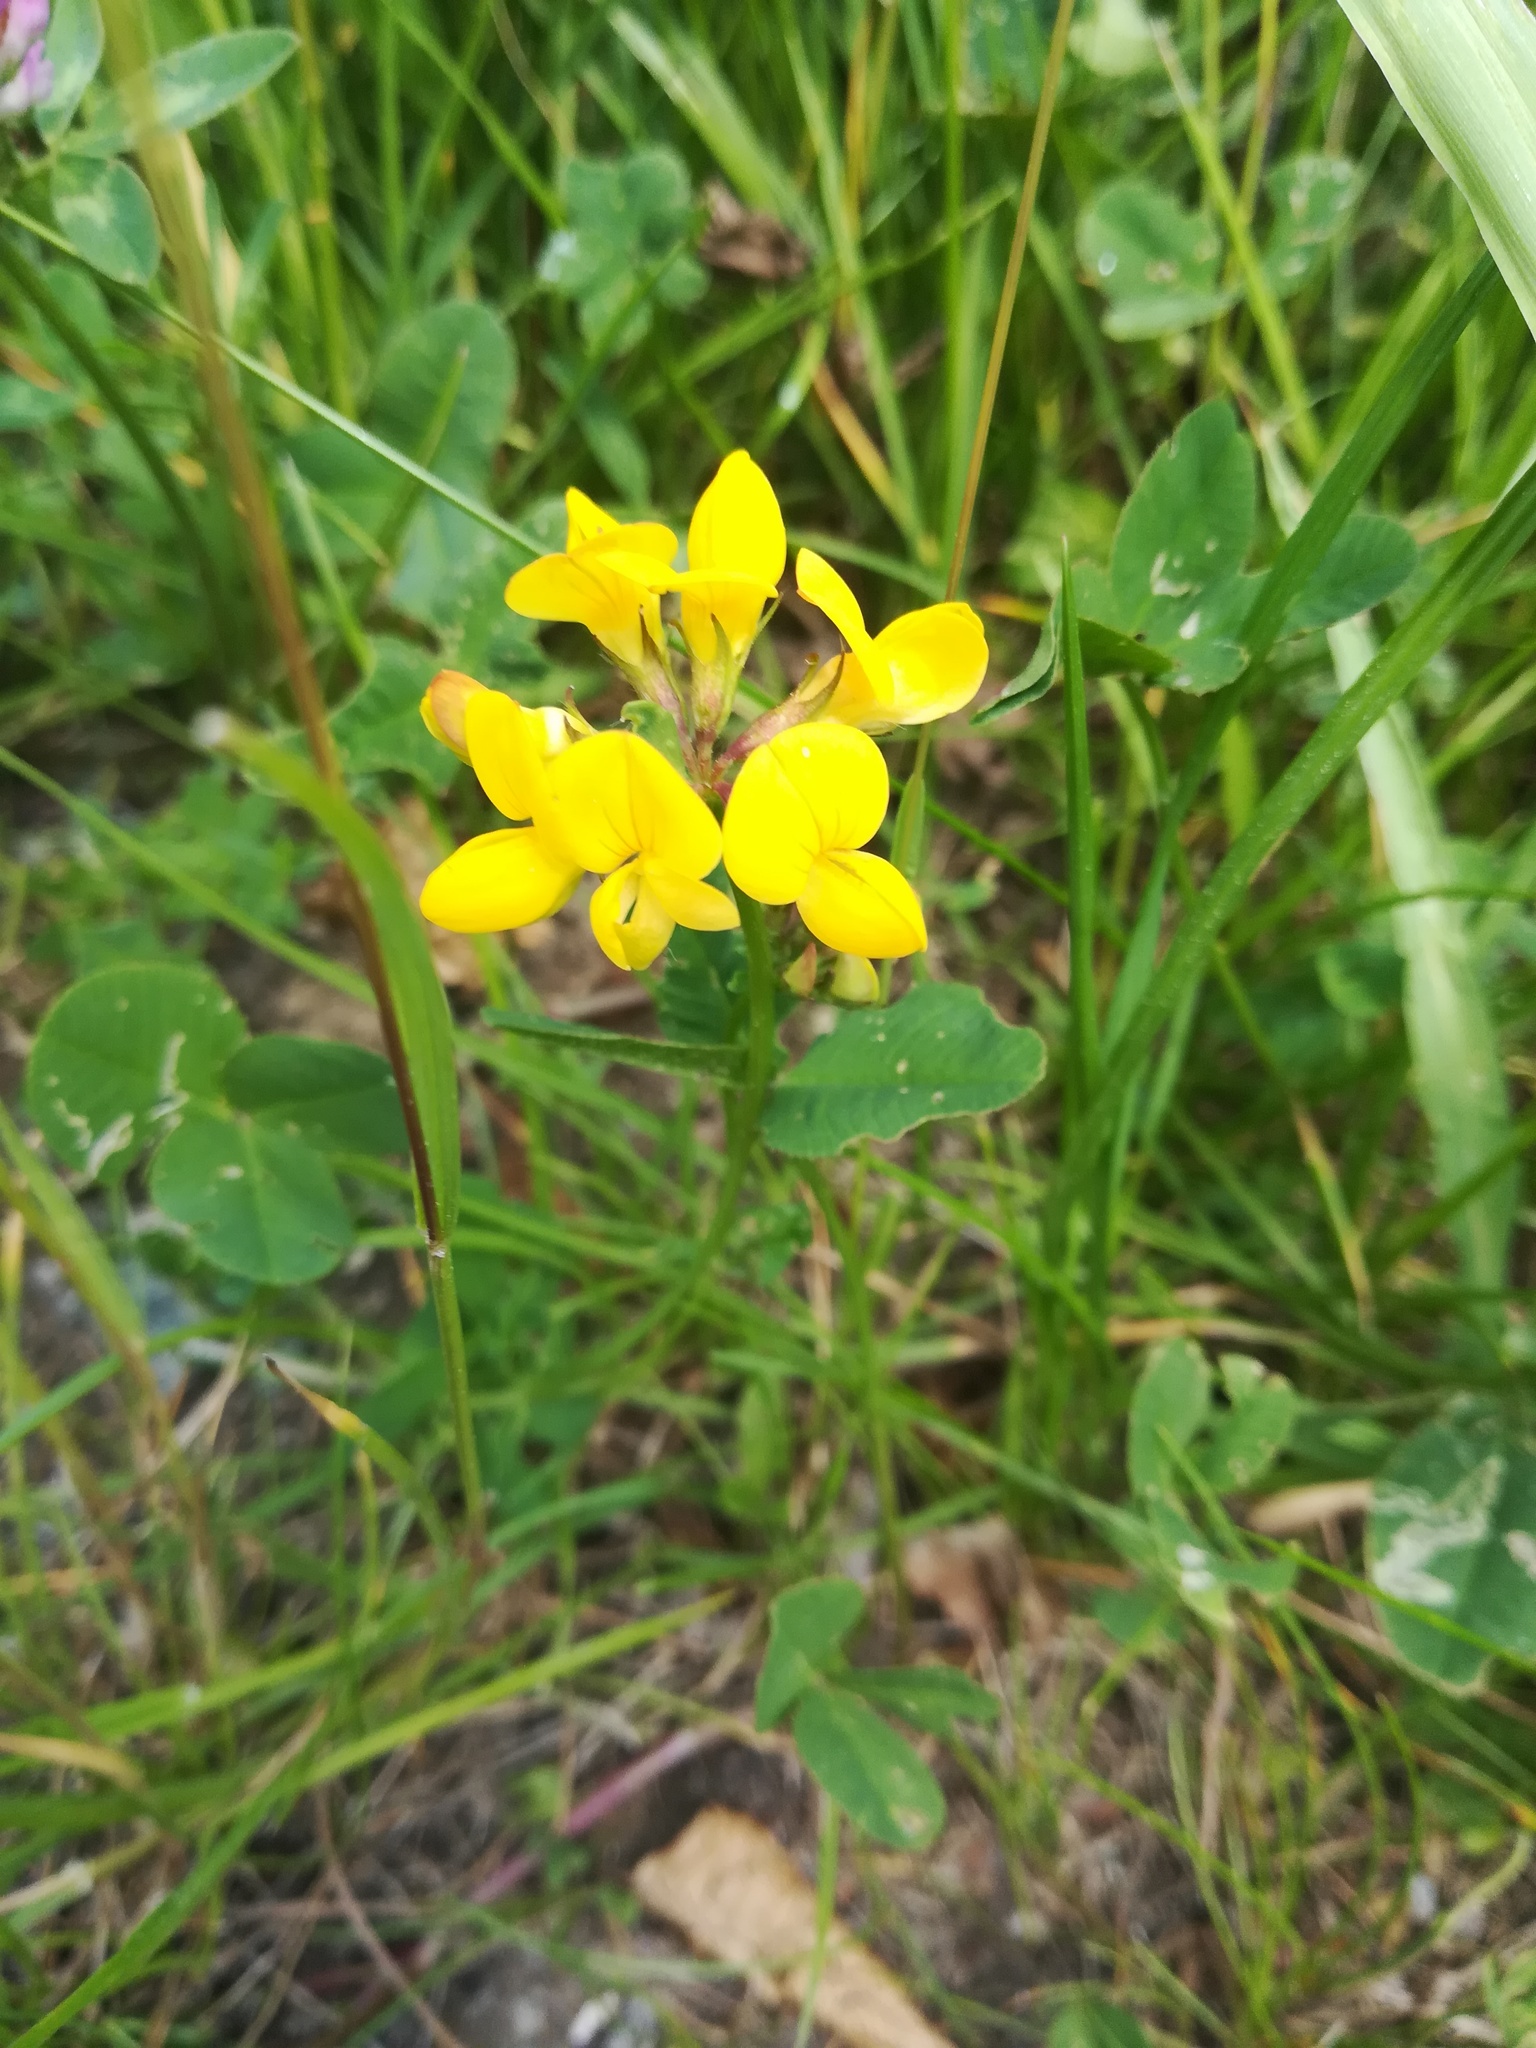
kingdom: Plantae
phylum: Tracheophyta
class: Magnoliopsida
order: Fabales
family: Fabaceae
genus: Lotus
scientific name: Lotus corniculatus
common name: Common bird's-foot-trefoil
